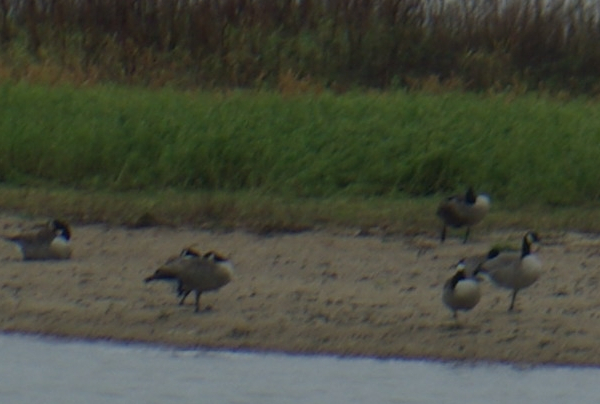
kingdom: Animalia
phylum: Chordata
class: Aves
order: Anseriformes
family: Anatidae
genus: Branta
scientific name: Branta canadensis
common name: Canada goose
